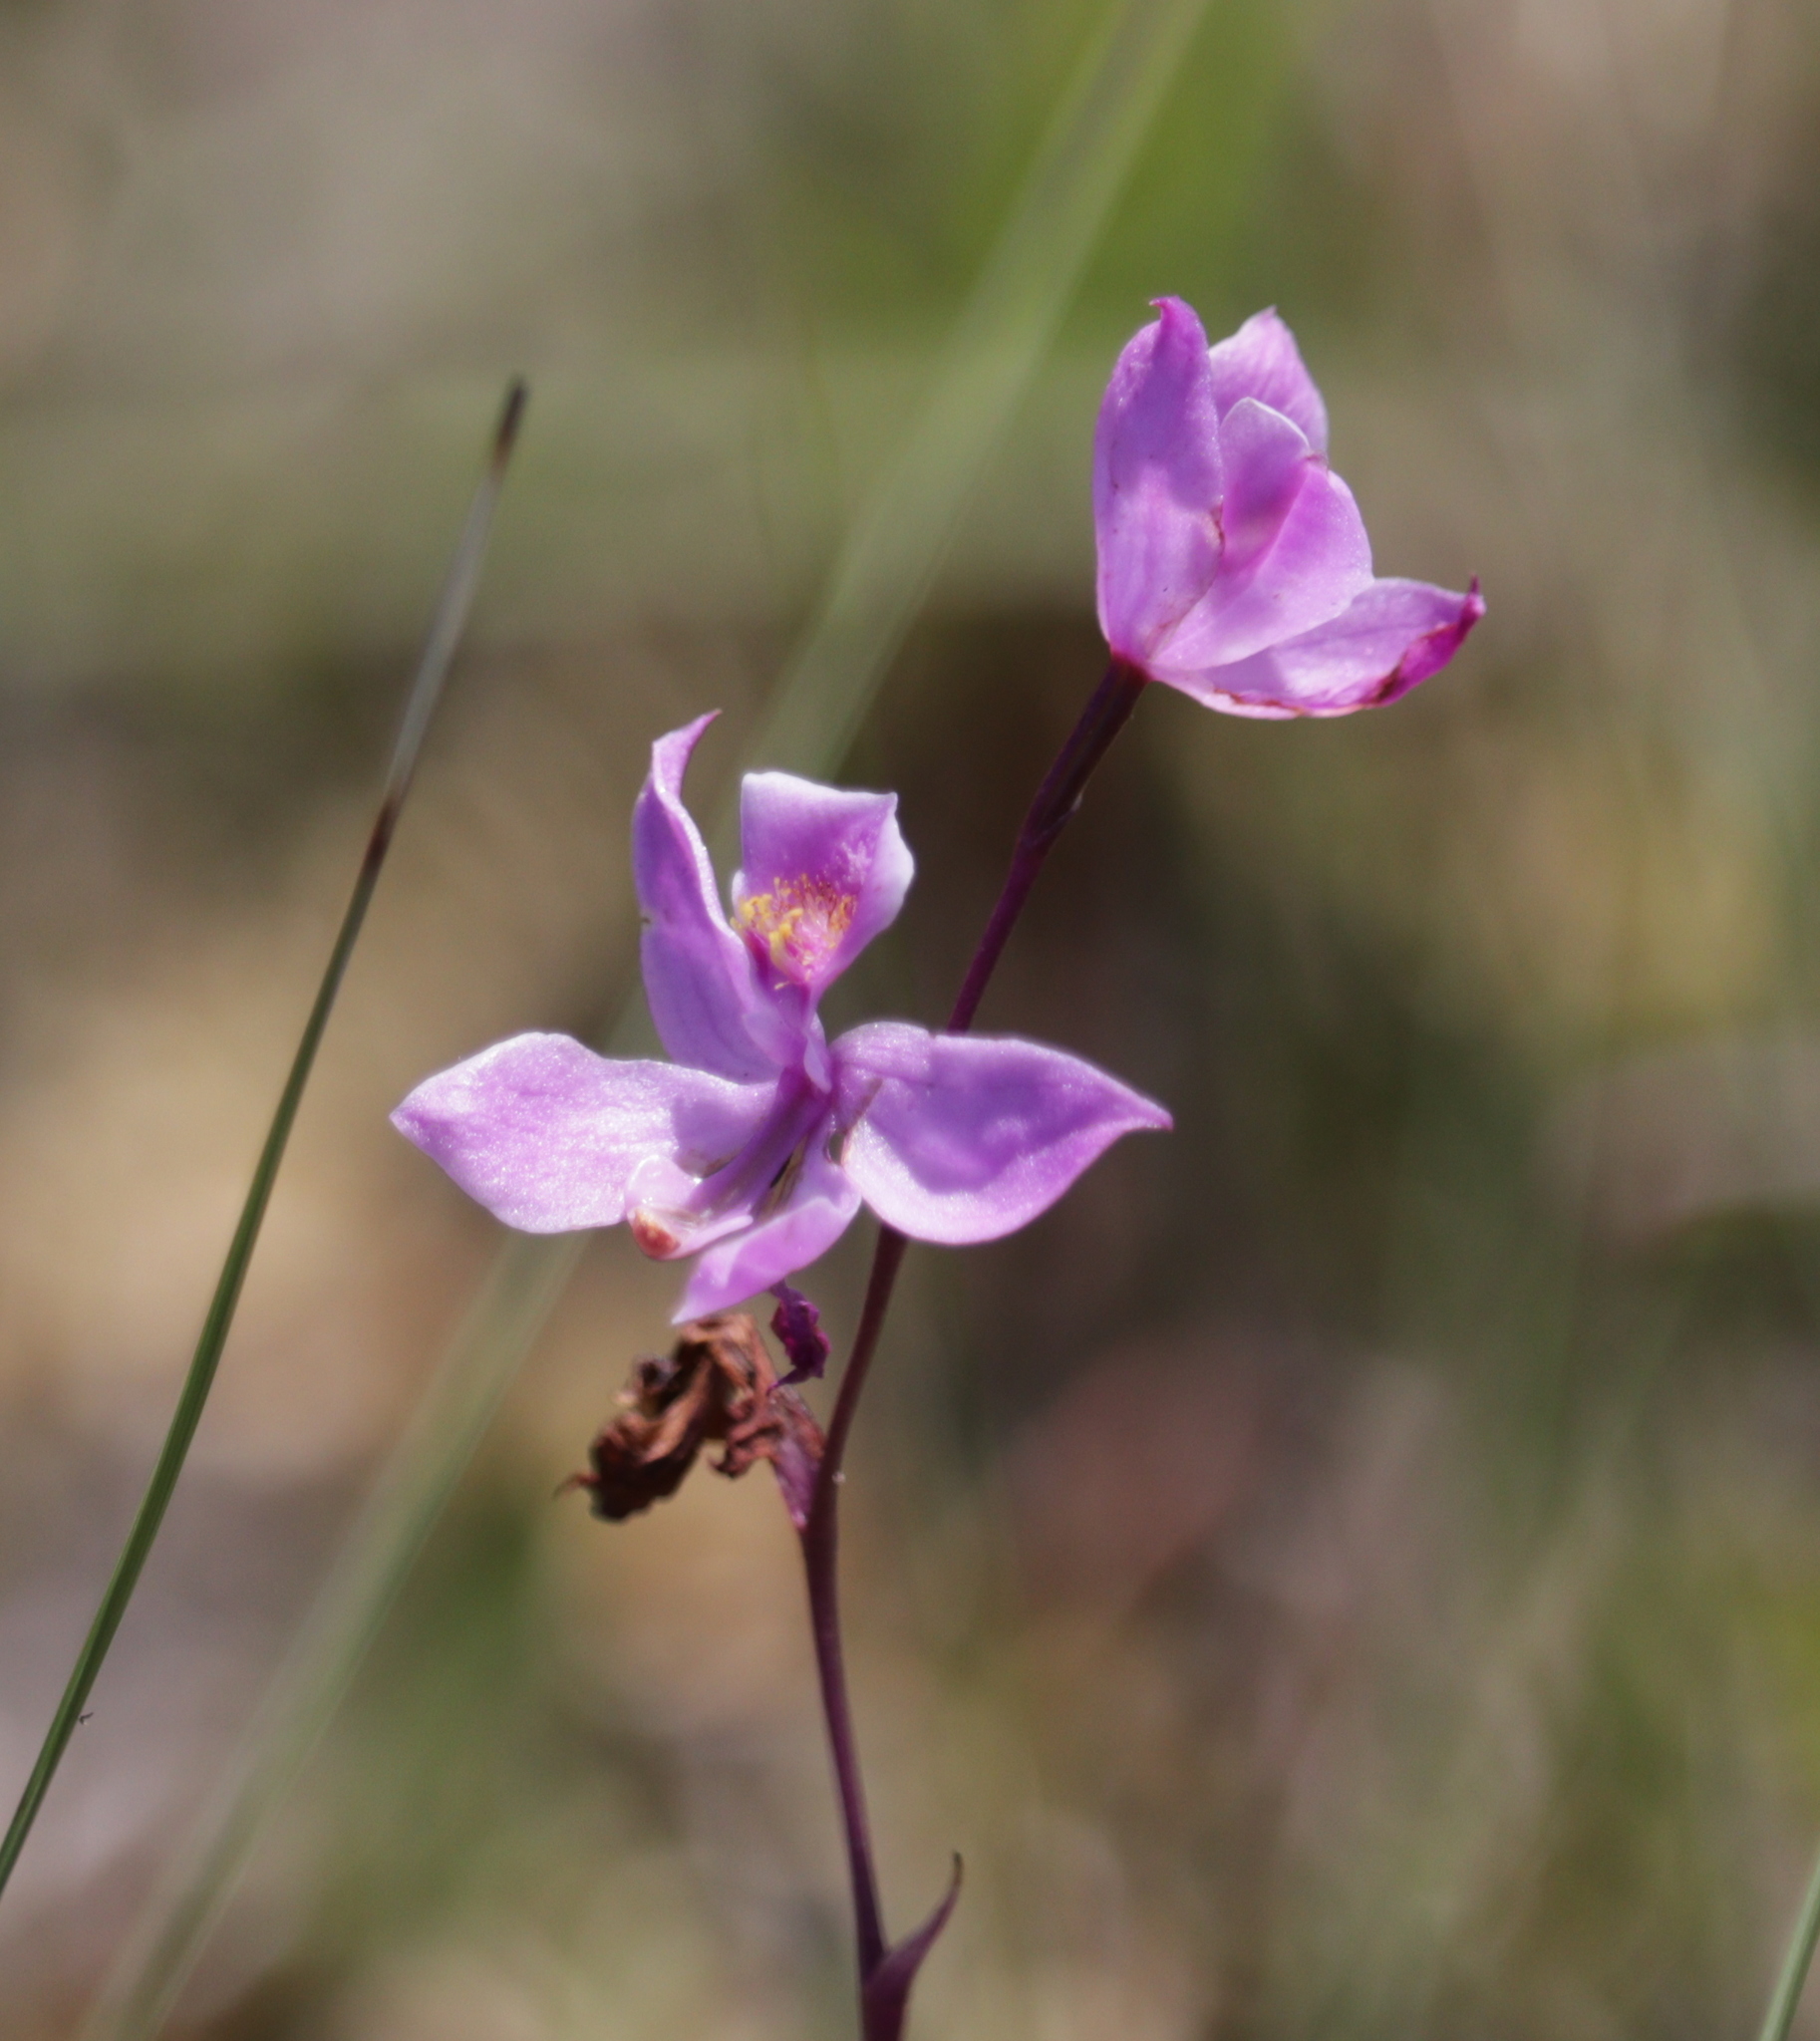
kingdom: Plantae
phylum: Tracheophyta
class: Liliopsida
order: Asparagales
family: Orchidaceae
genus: Calopogon
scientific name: Calopogon multiflorus
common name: Many-flowered grass-pink orchid
